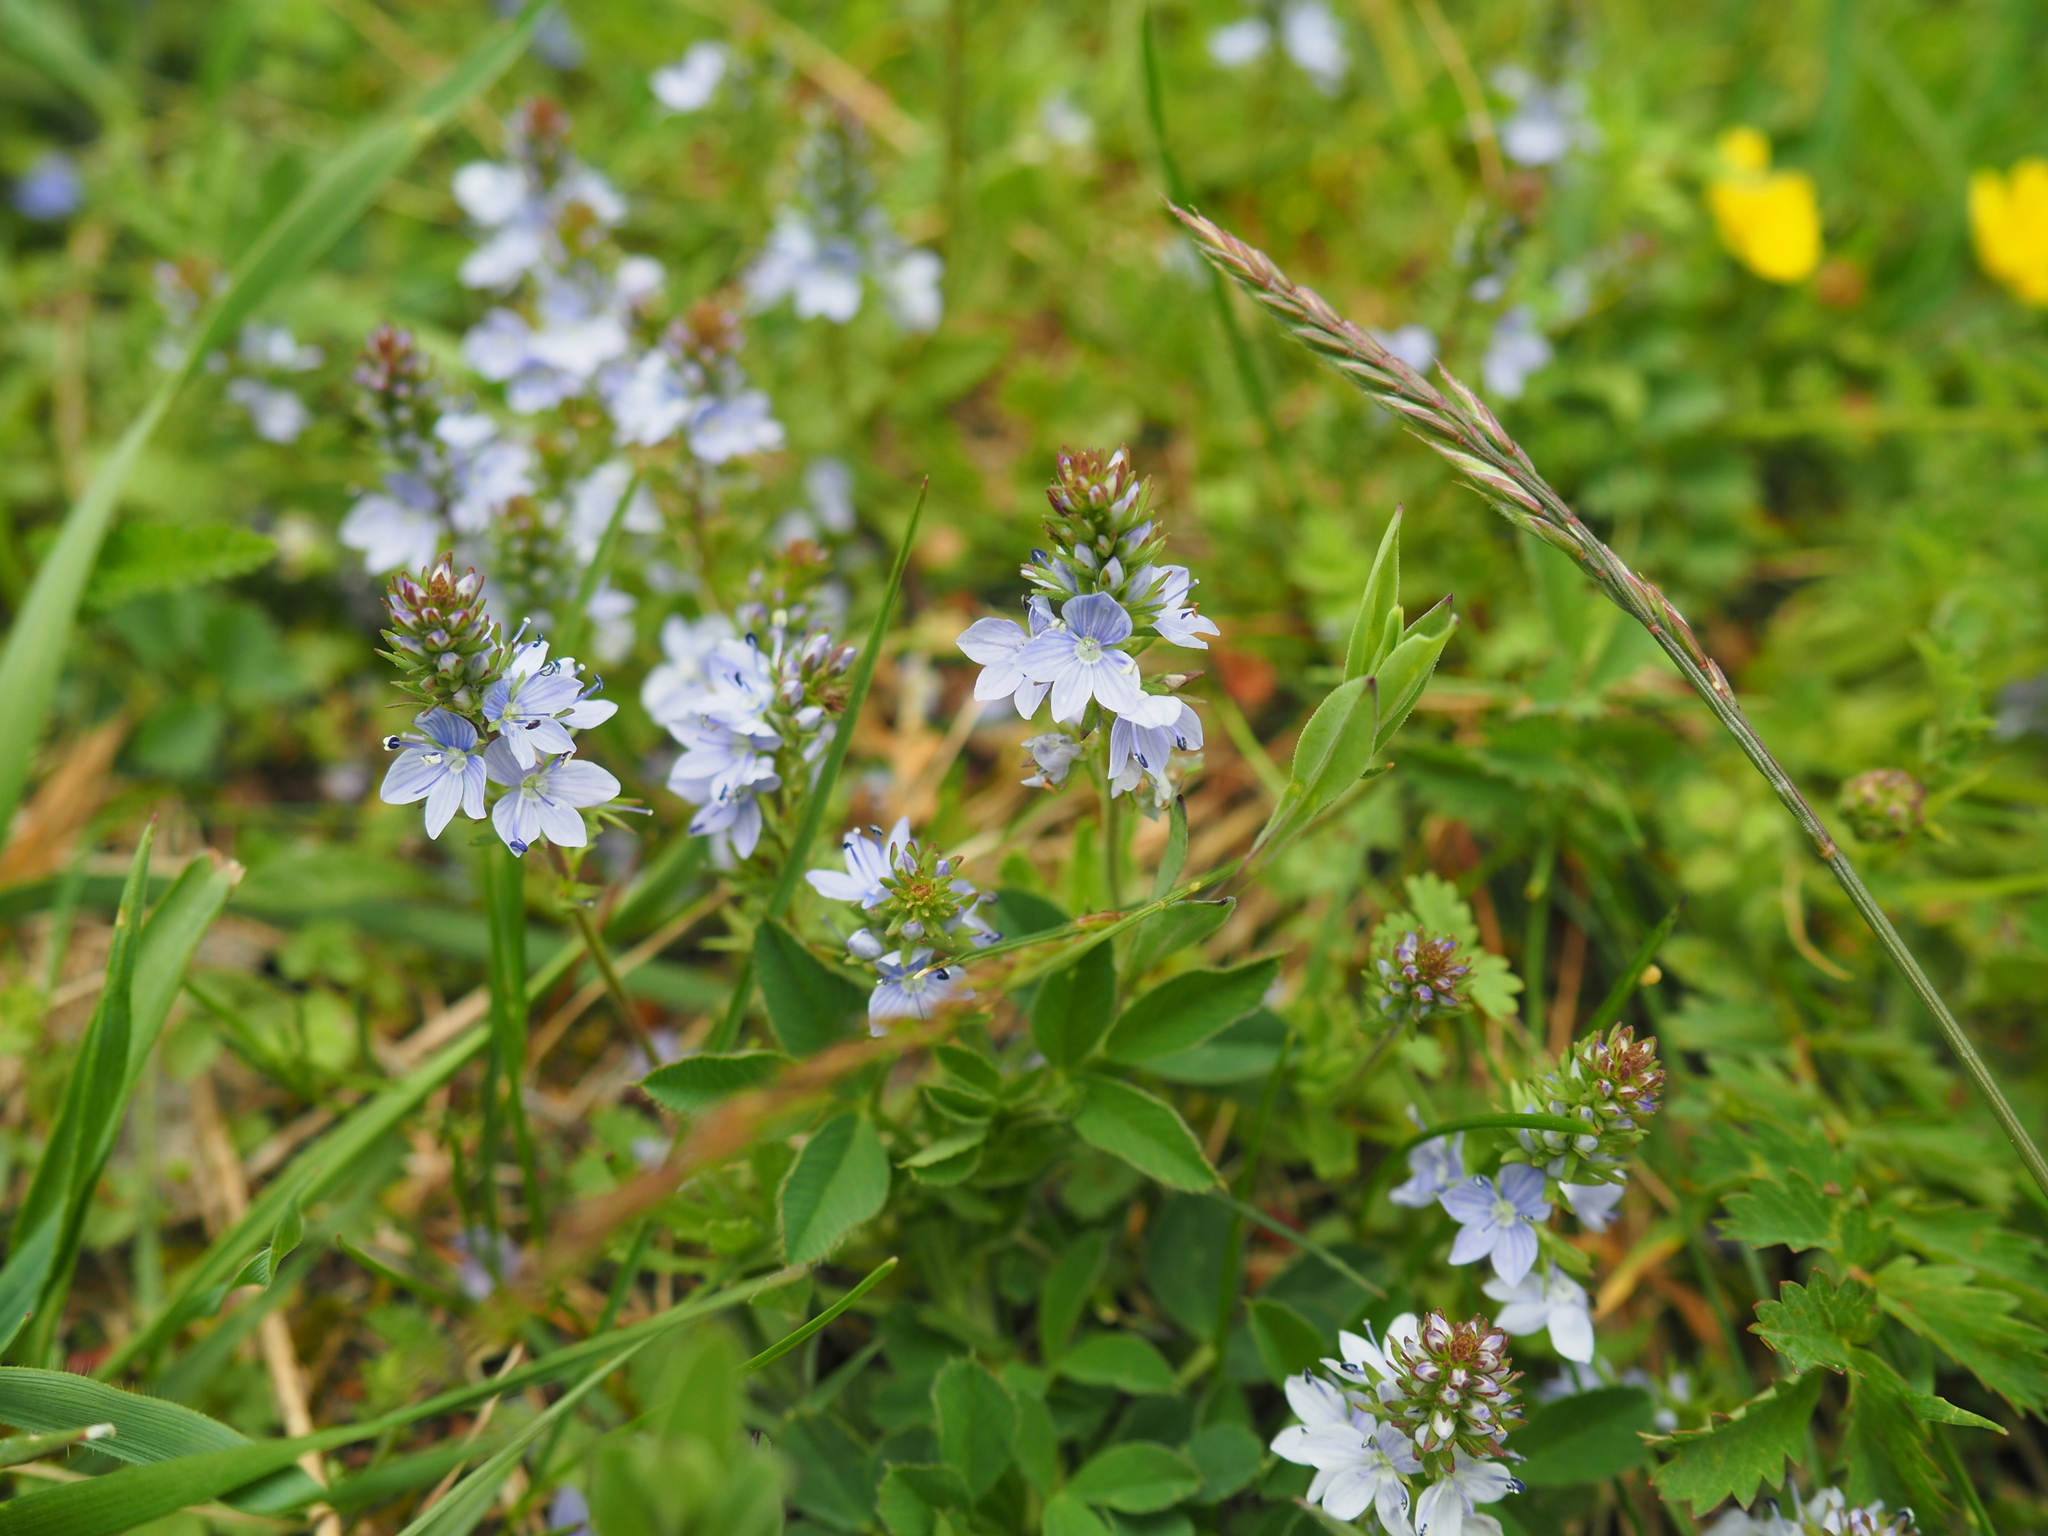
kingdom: Plantae
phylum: Tracheophyta
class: Magnoliopsida
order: Lamiales
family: Plantaginaceae
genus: Veronica
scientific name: Veronica prostrata
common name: Prostrate speedwell
